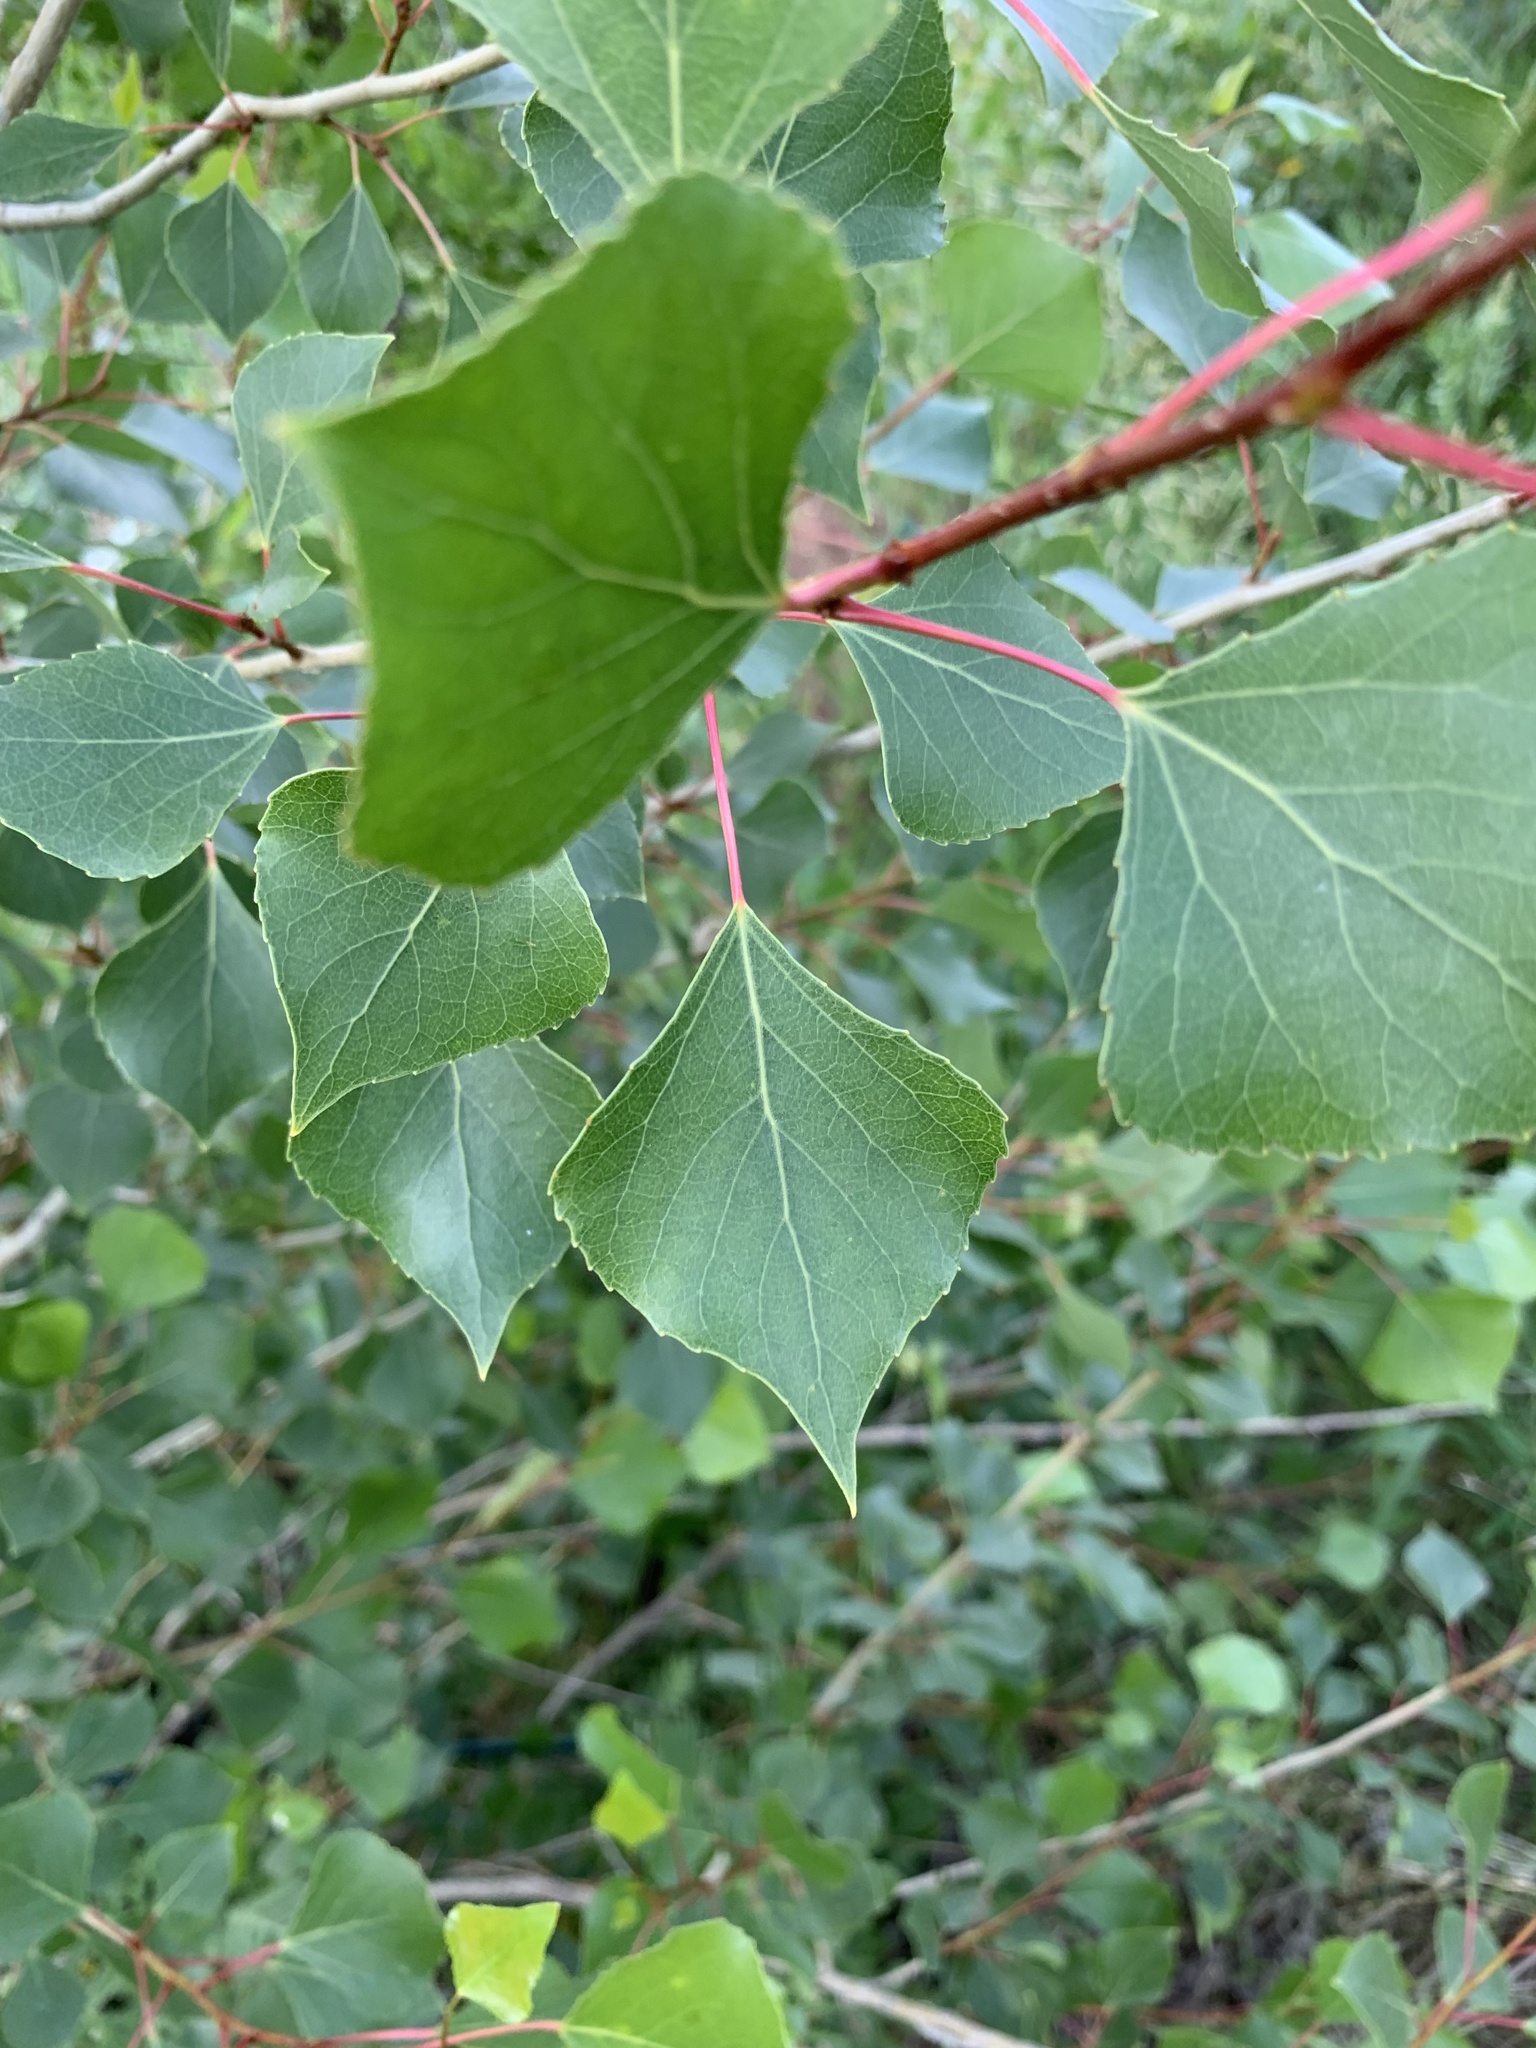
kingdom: Plantae
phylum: Tracheophyta
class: Magnoliopsida
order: Malpighiales
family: Salicaceae
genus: Populus
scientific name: Populus nigra
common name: Black poplar
